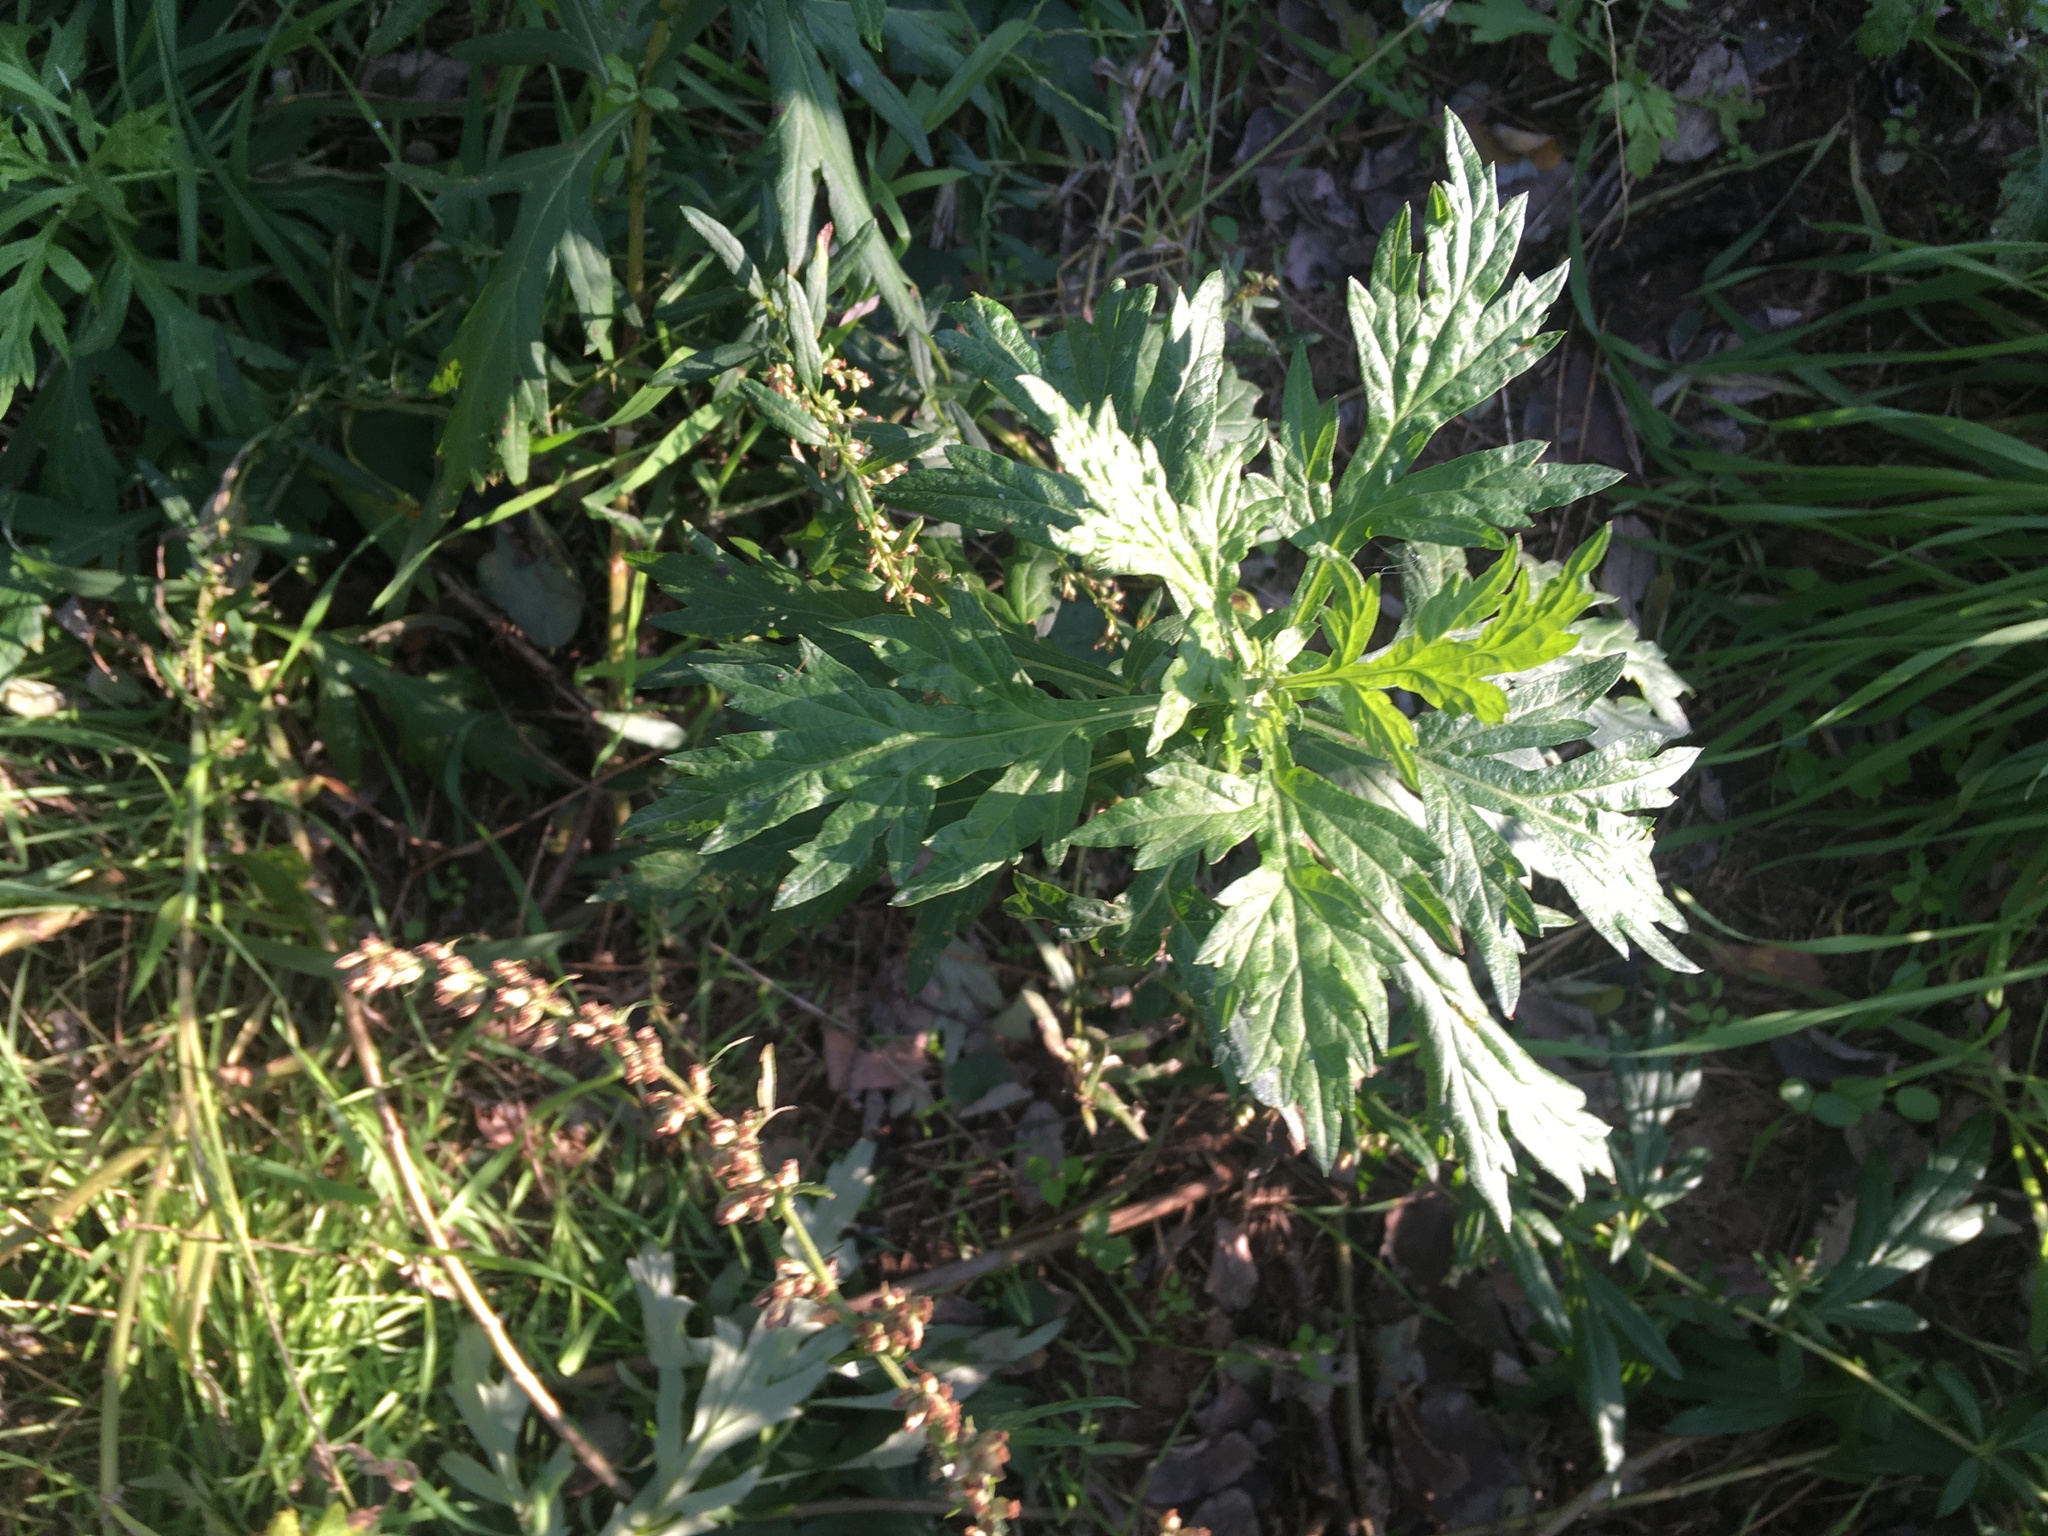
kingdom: Plantae
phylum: Tracheophyta
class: Magnoliopsida
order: Asterales
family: Asteraceae
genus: Artemisia
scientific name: Artemisia vulgaris
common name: Mugwort
